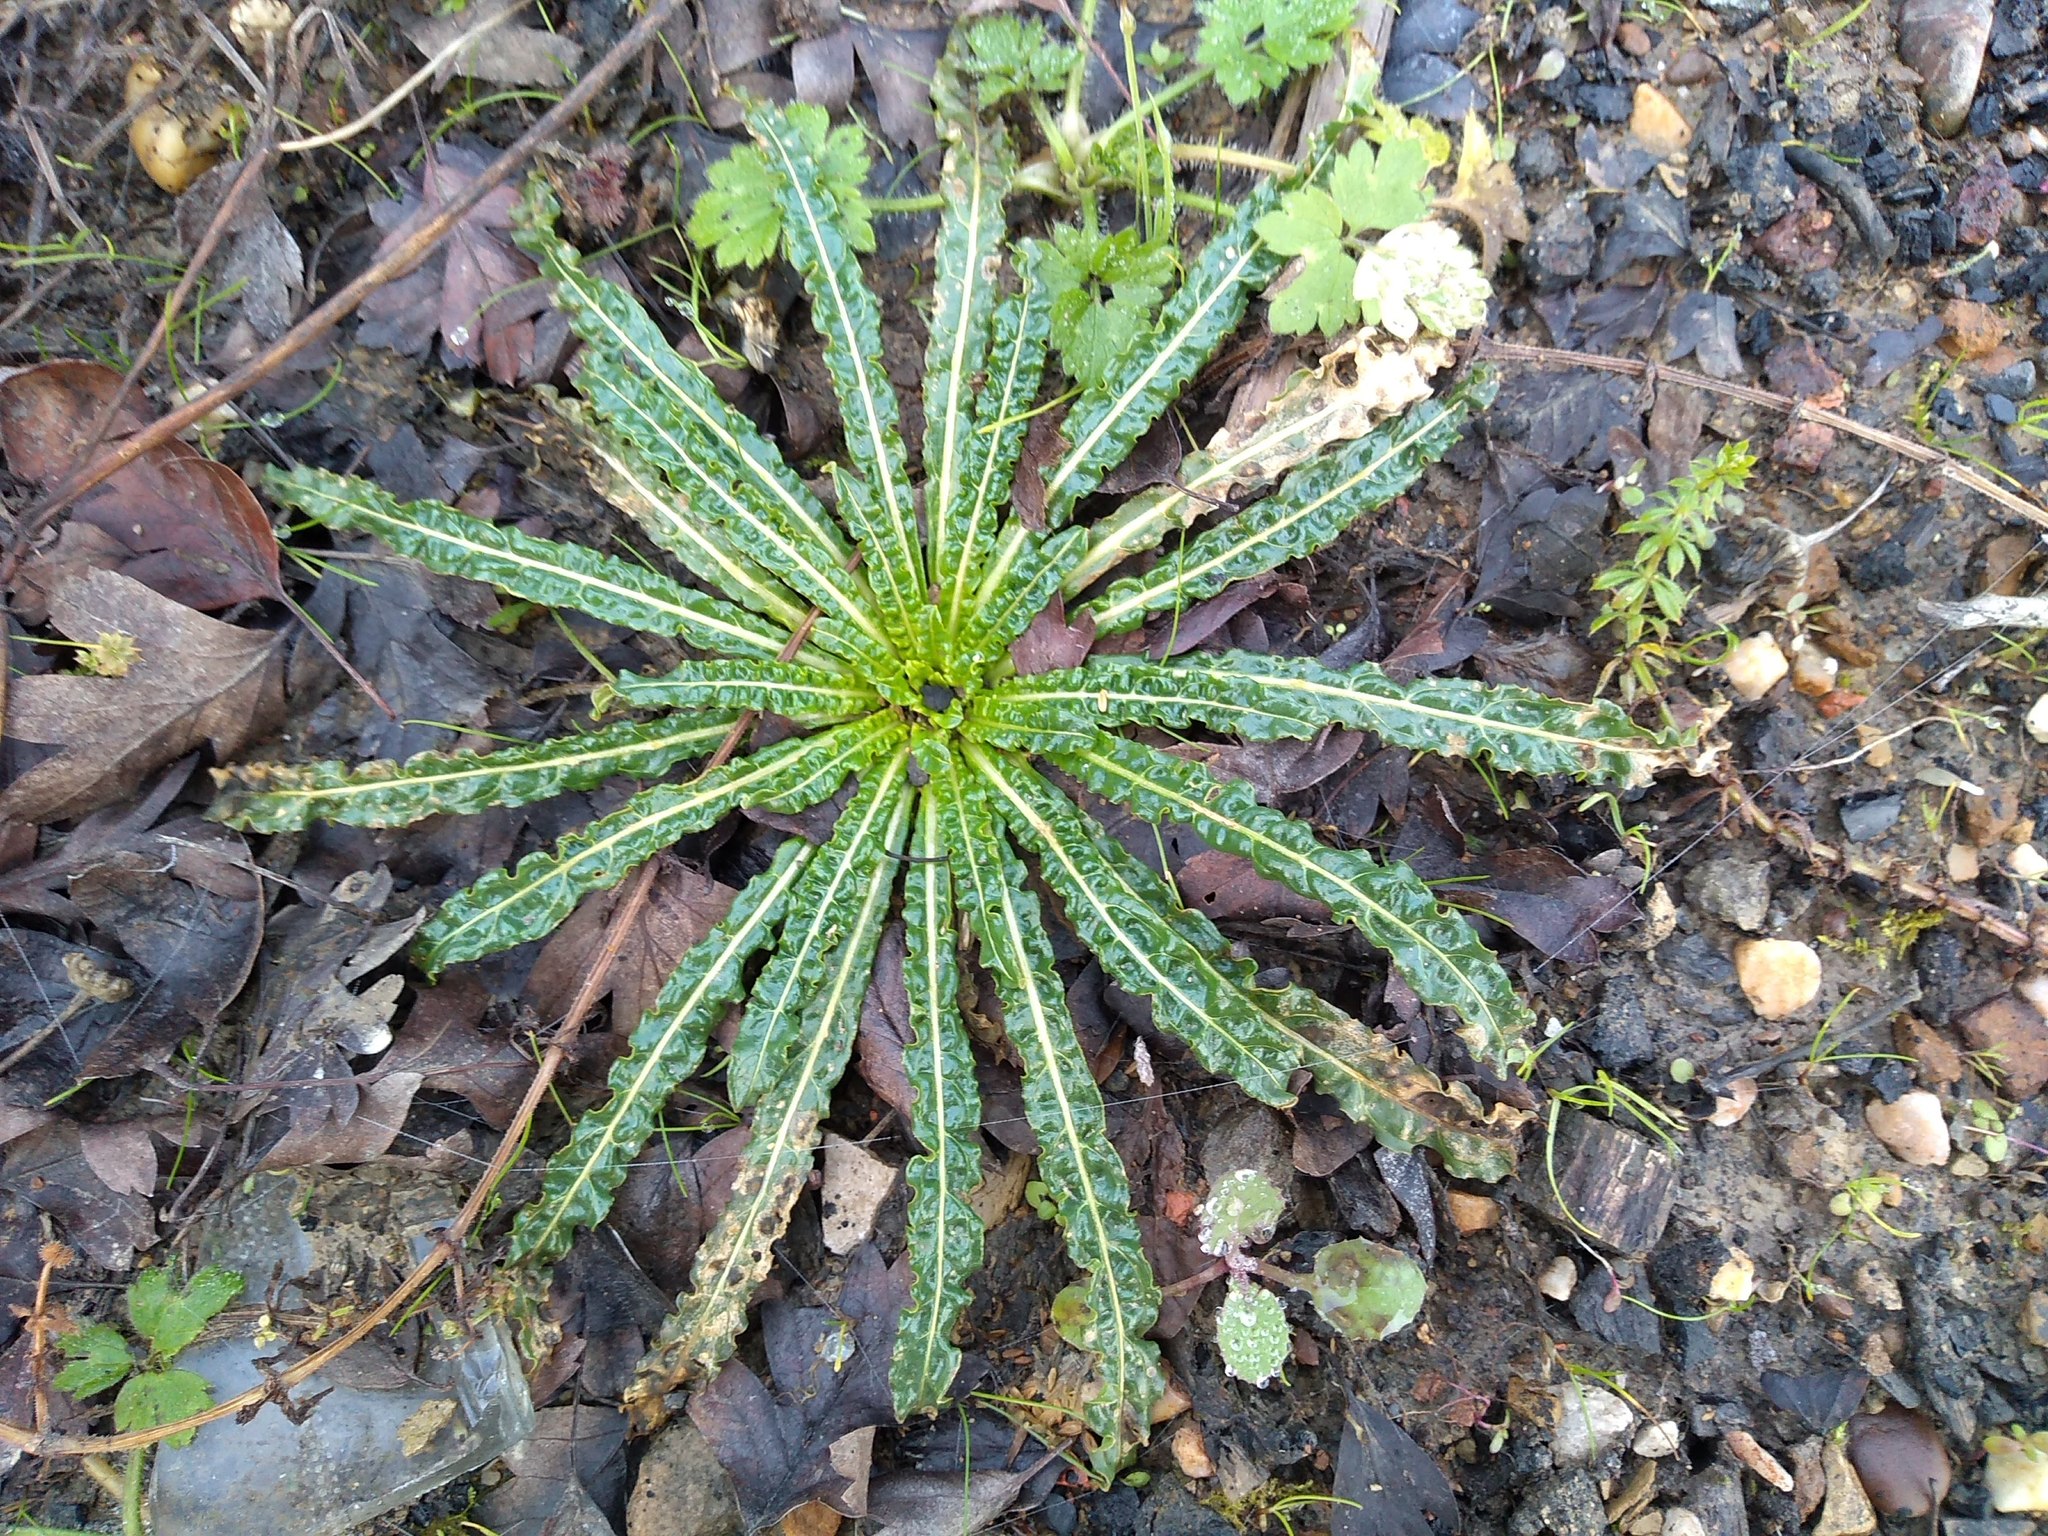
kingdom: Plantae
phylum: Tracheophyta
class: Magnoliopsida
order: Brassicales
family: Resedaceae
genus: Reseda
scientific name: Reseda luteola
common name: Weld
